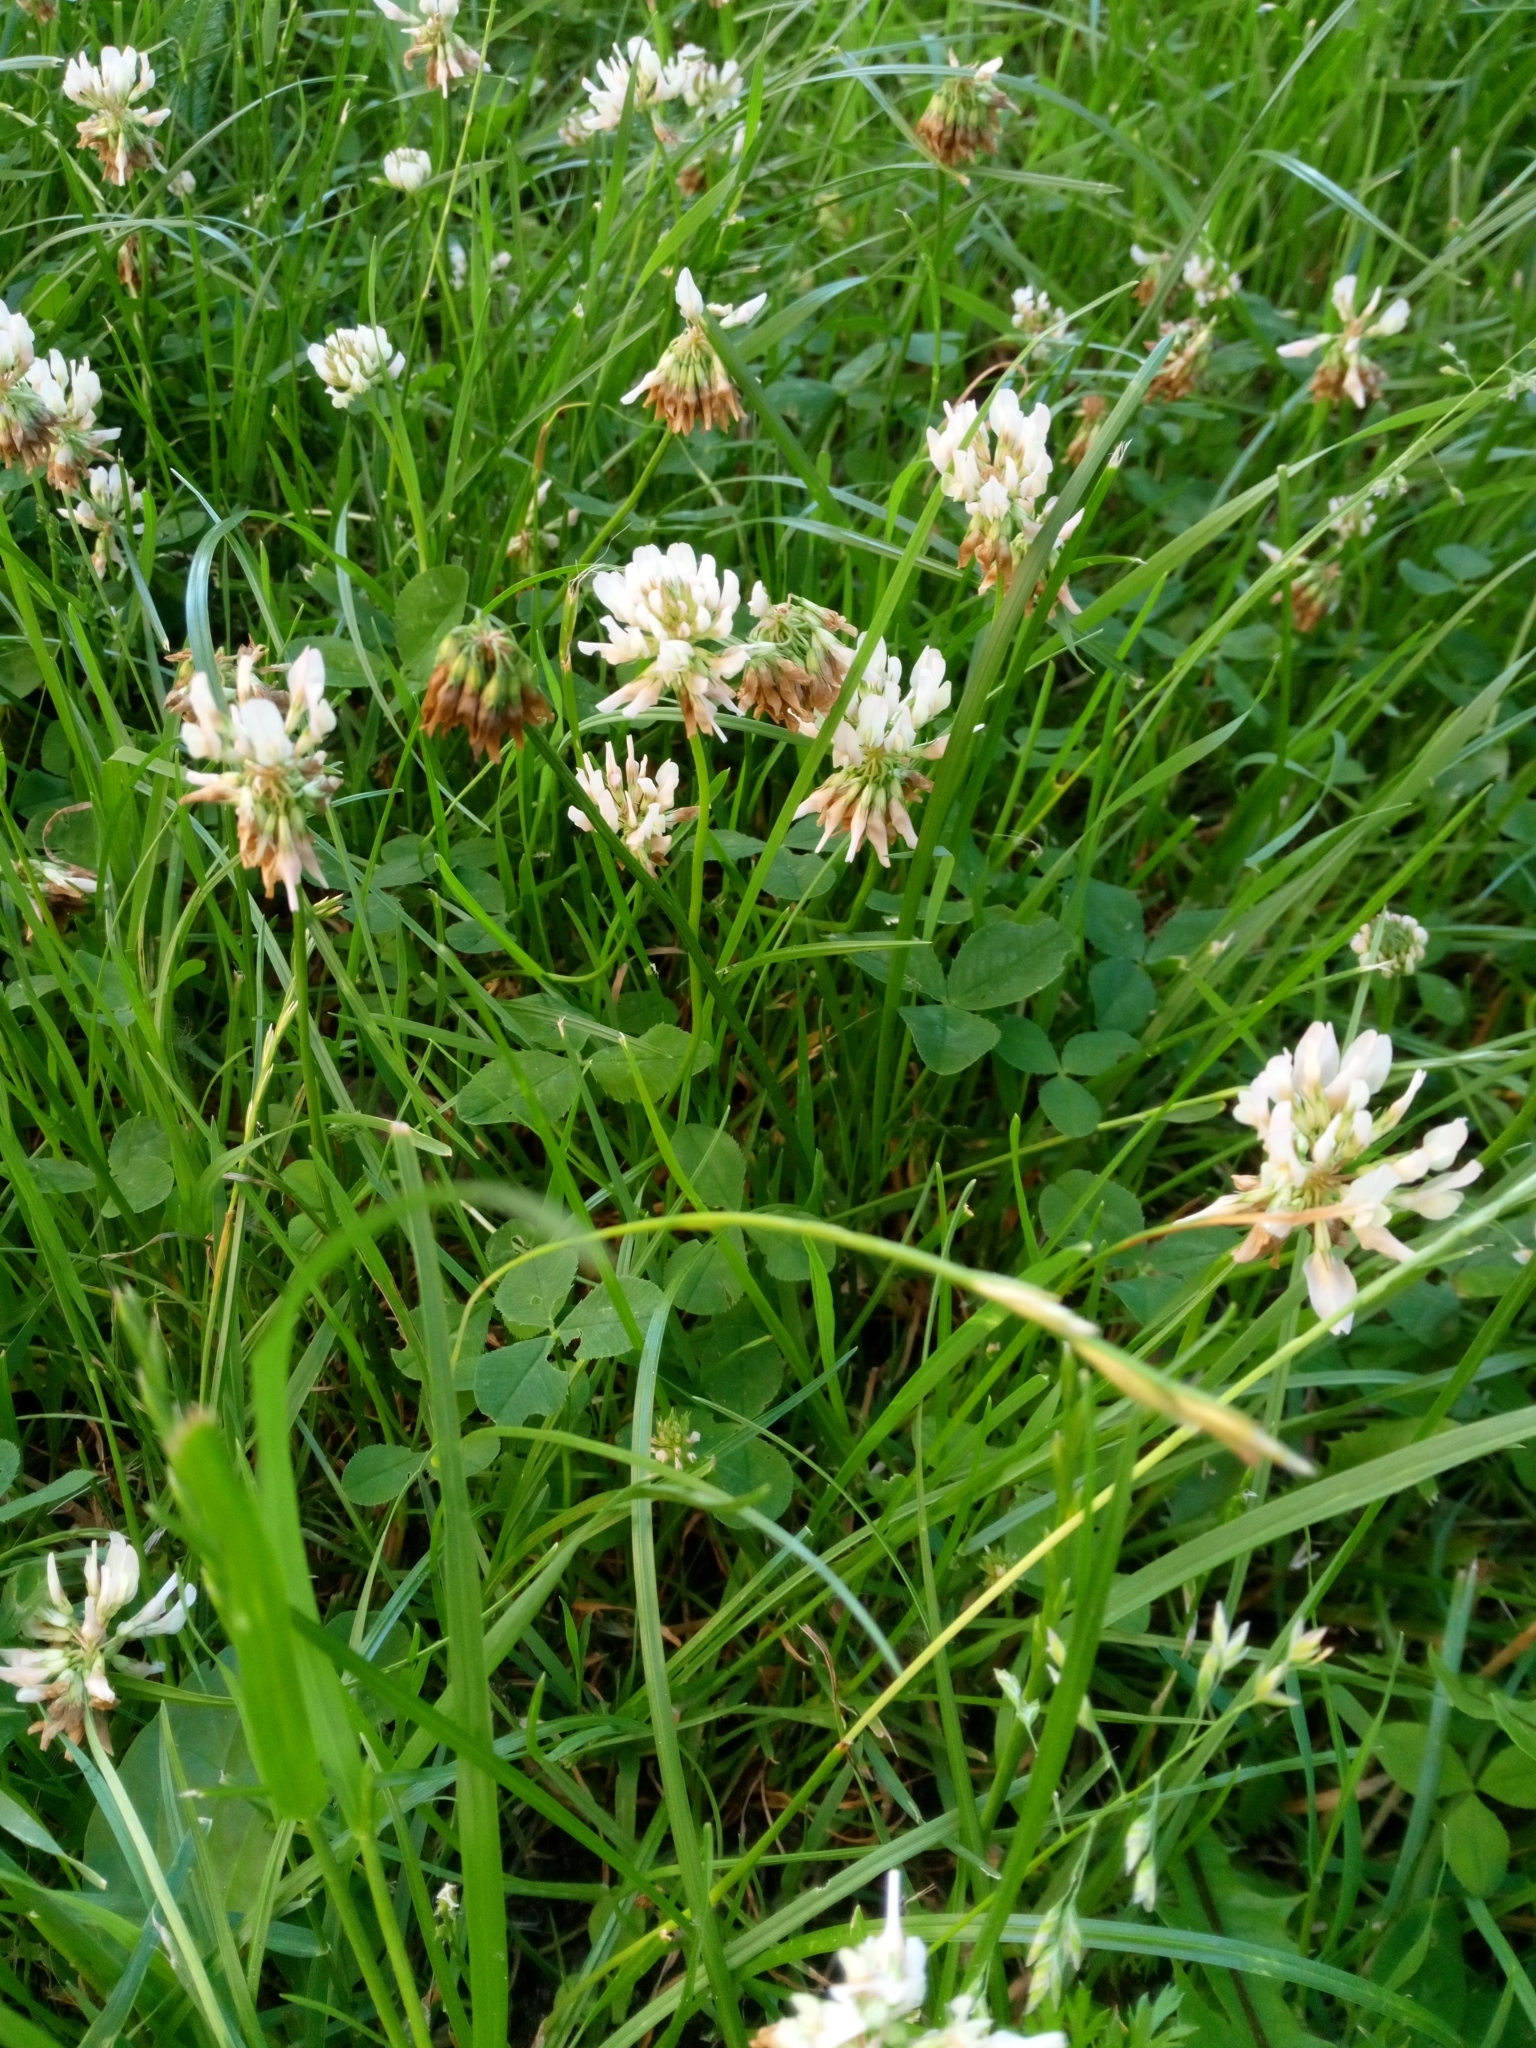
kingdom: Plantae
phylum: Tracheophyta
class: Magnoliopsida
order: Fabales
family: Fabaceae
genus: Trifolium
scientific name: Trifolium repens
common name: White clover
